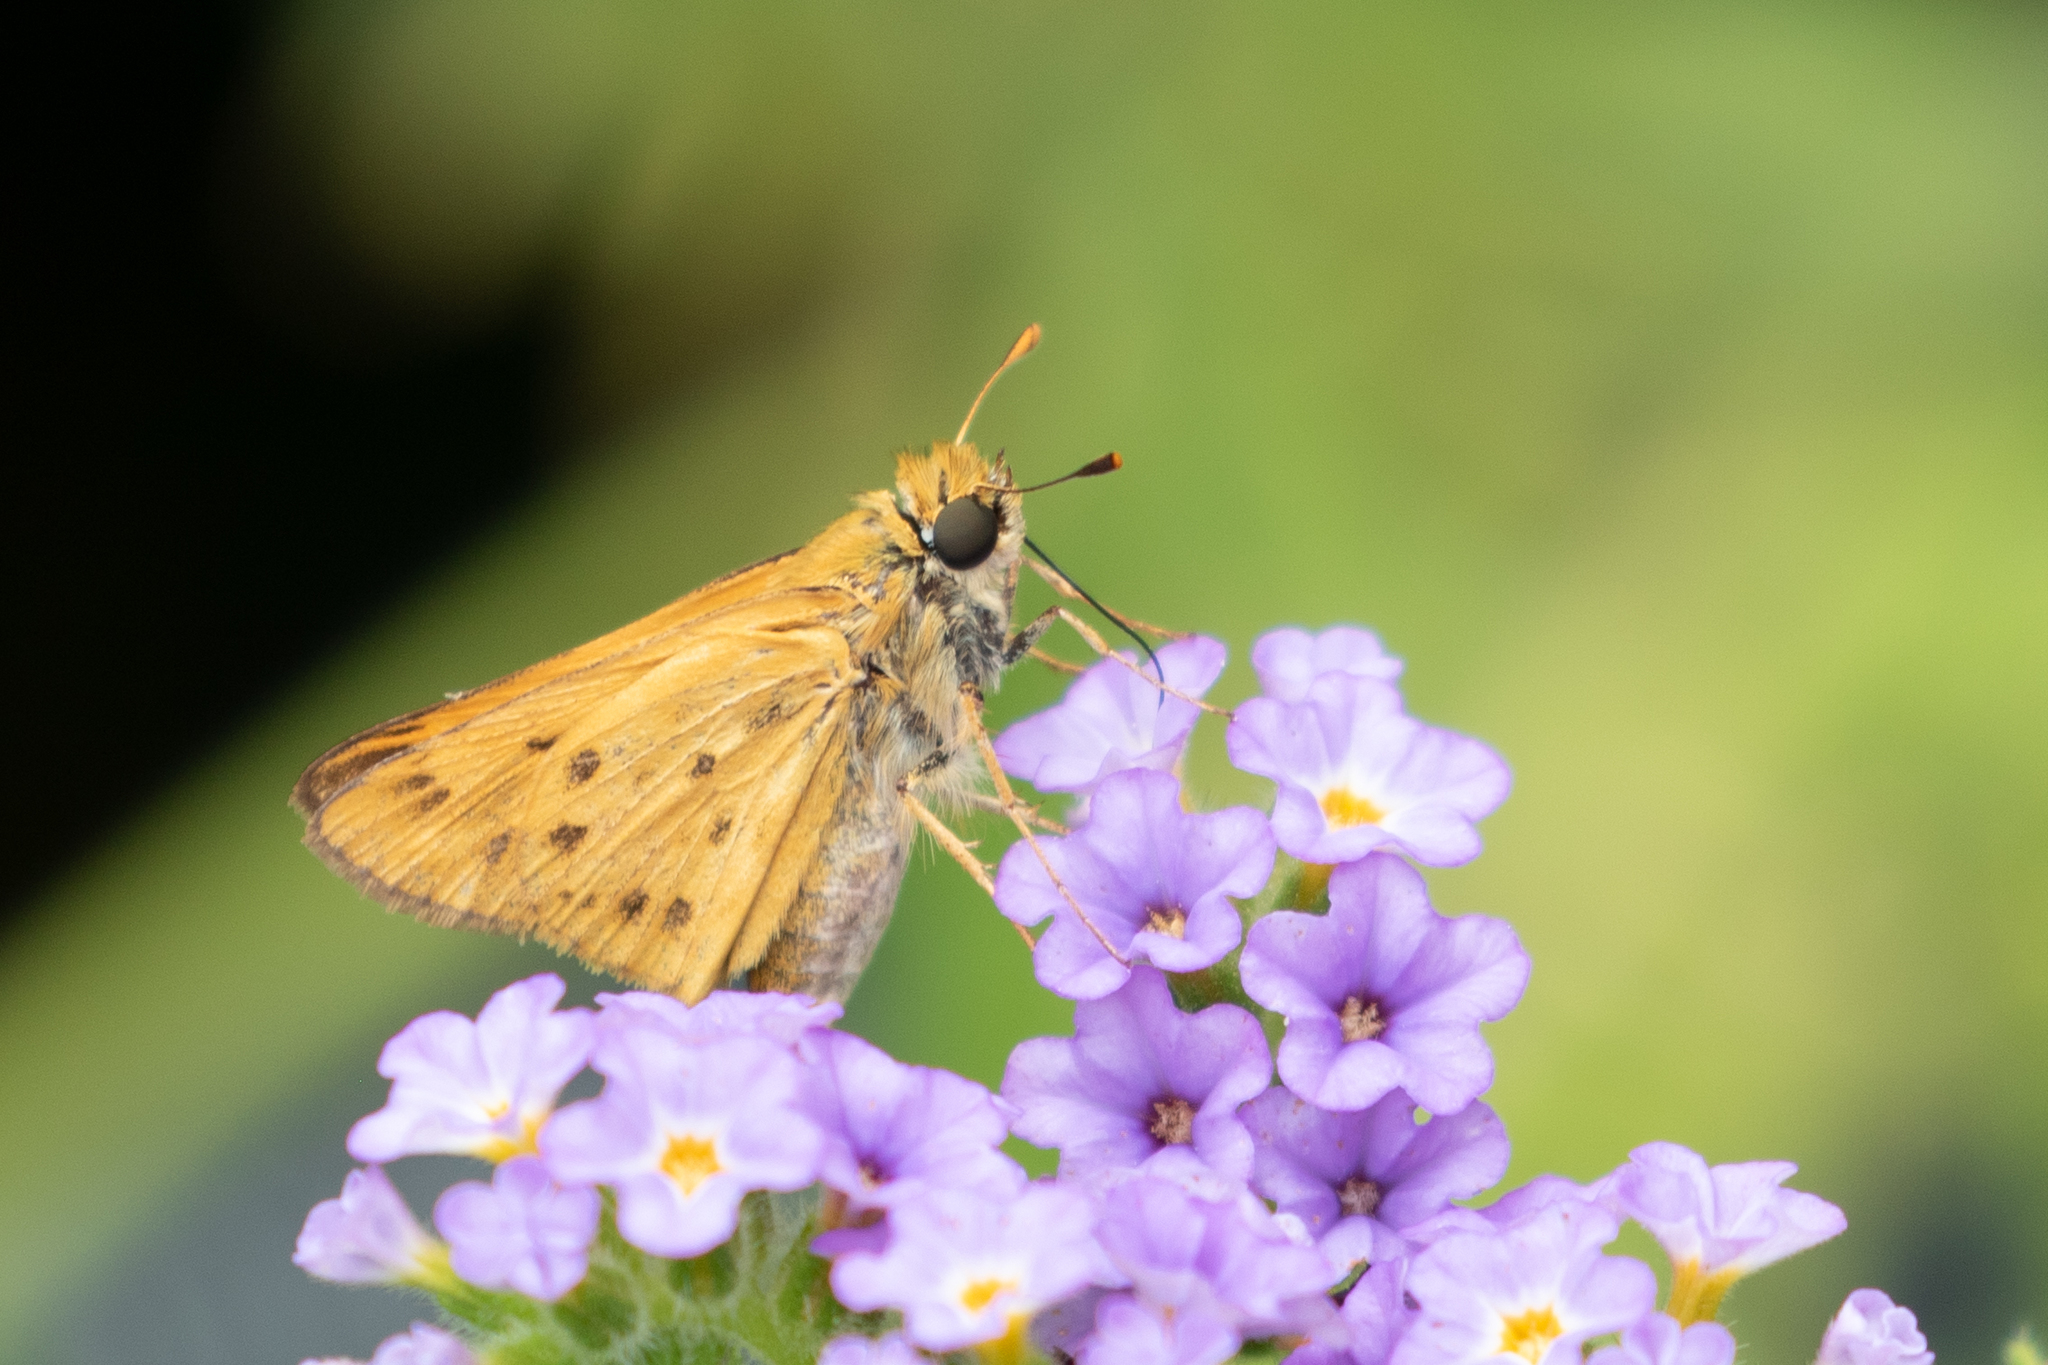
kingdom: Animalia
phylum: Arthropoda
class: Insecta
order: Lepidoptera
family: Hesperiidae
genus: Hylephila
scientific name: Hylephila phyleus
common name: Fiery skipper
